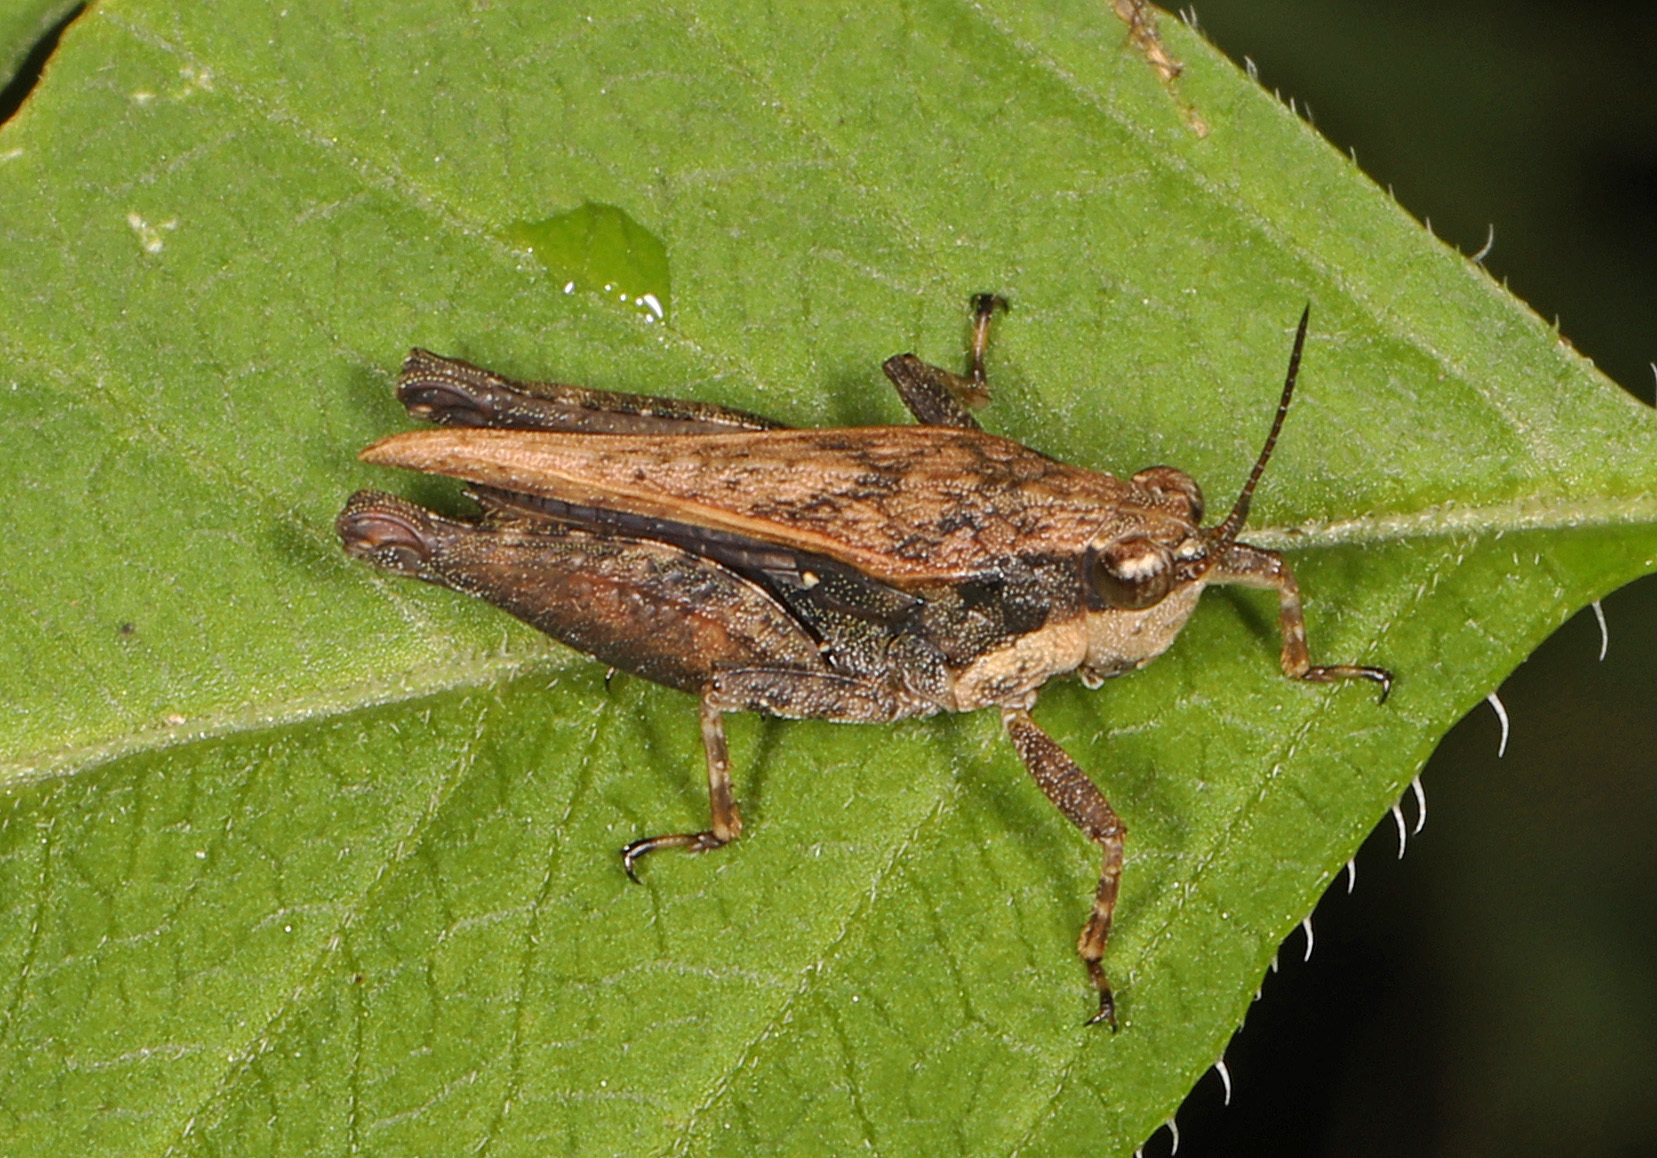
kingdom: Animalia
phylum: Arthropoda
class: Insecta
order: Orthoptera
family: Tetrigidae
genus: Tettigidea
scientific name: Tettigidea laterale
